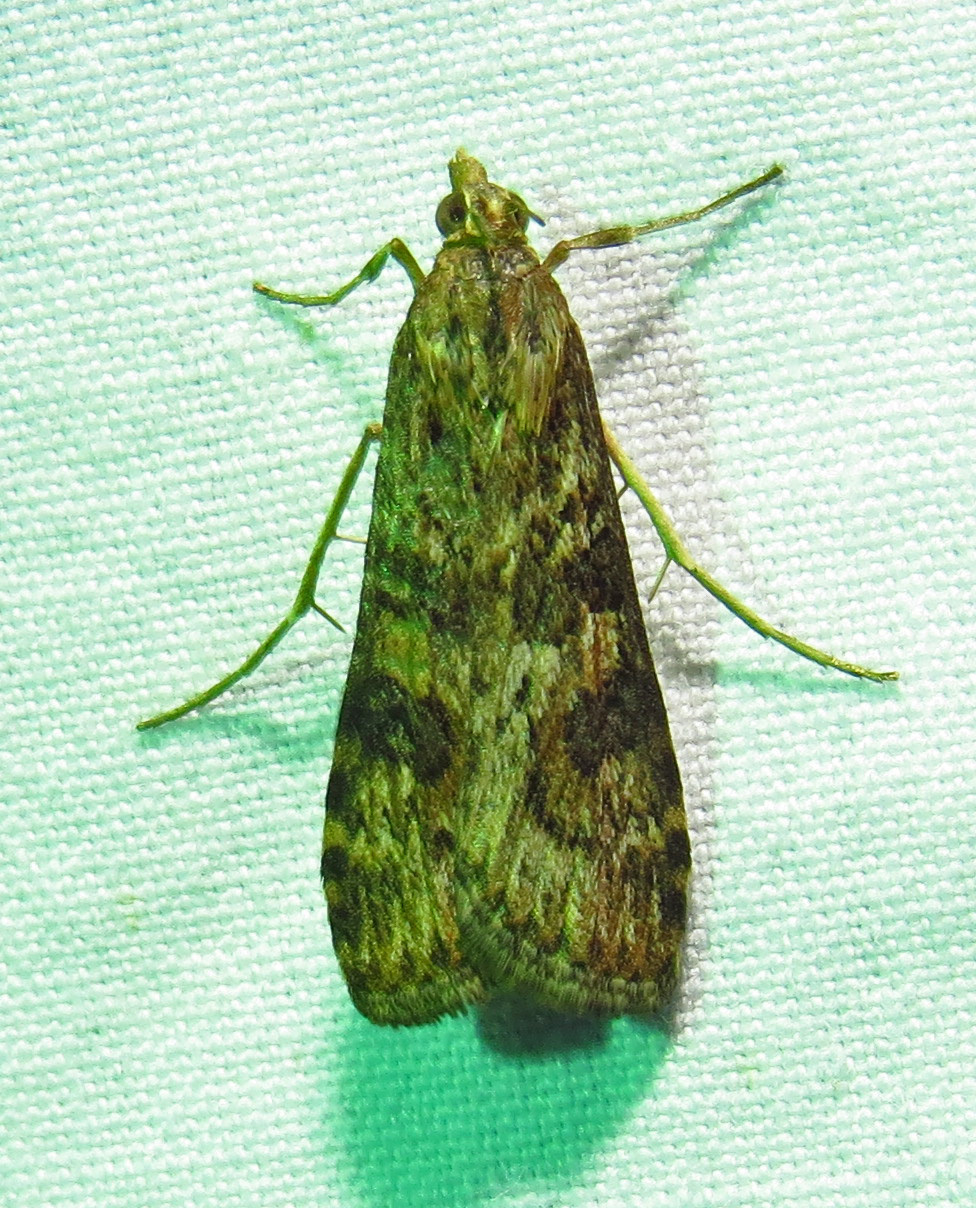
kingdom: Animalia
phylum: Arthropoda
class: Insecta
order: Lepidoptera
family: Crambidae
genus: Nomophila
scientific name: Nomophila nearctica
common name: American rush veneer
